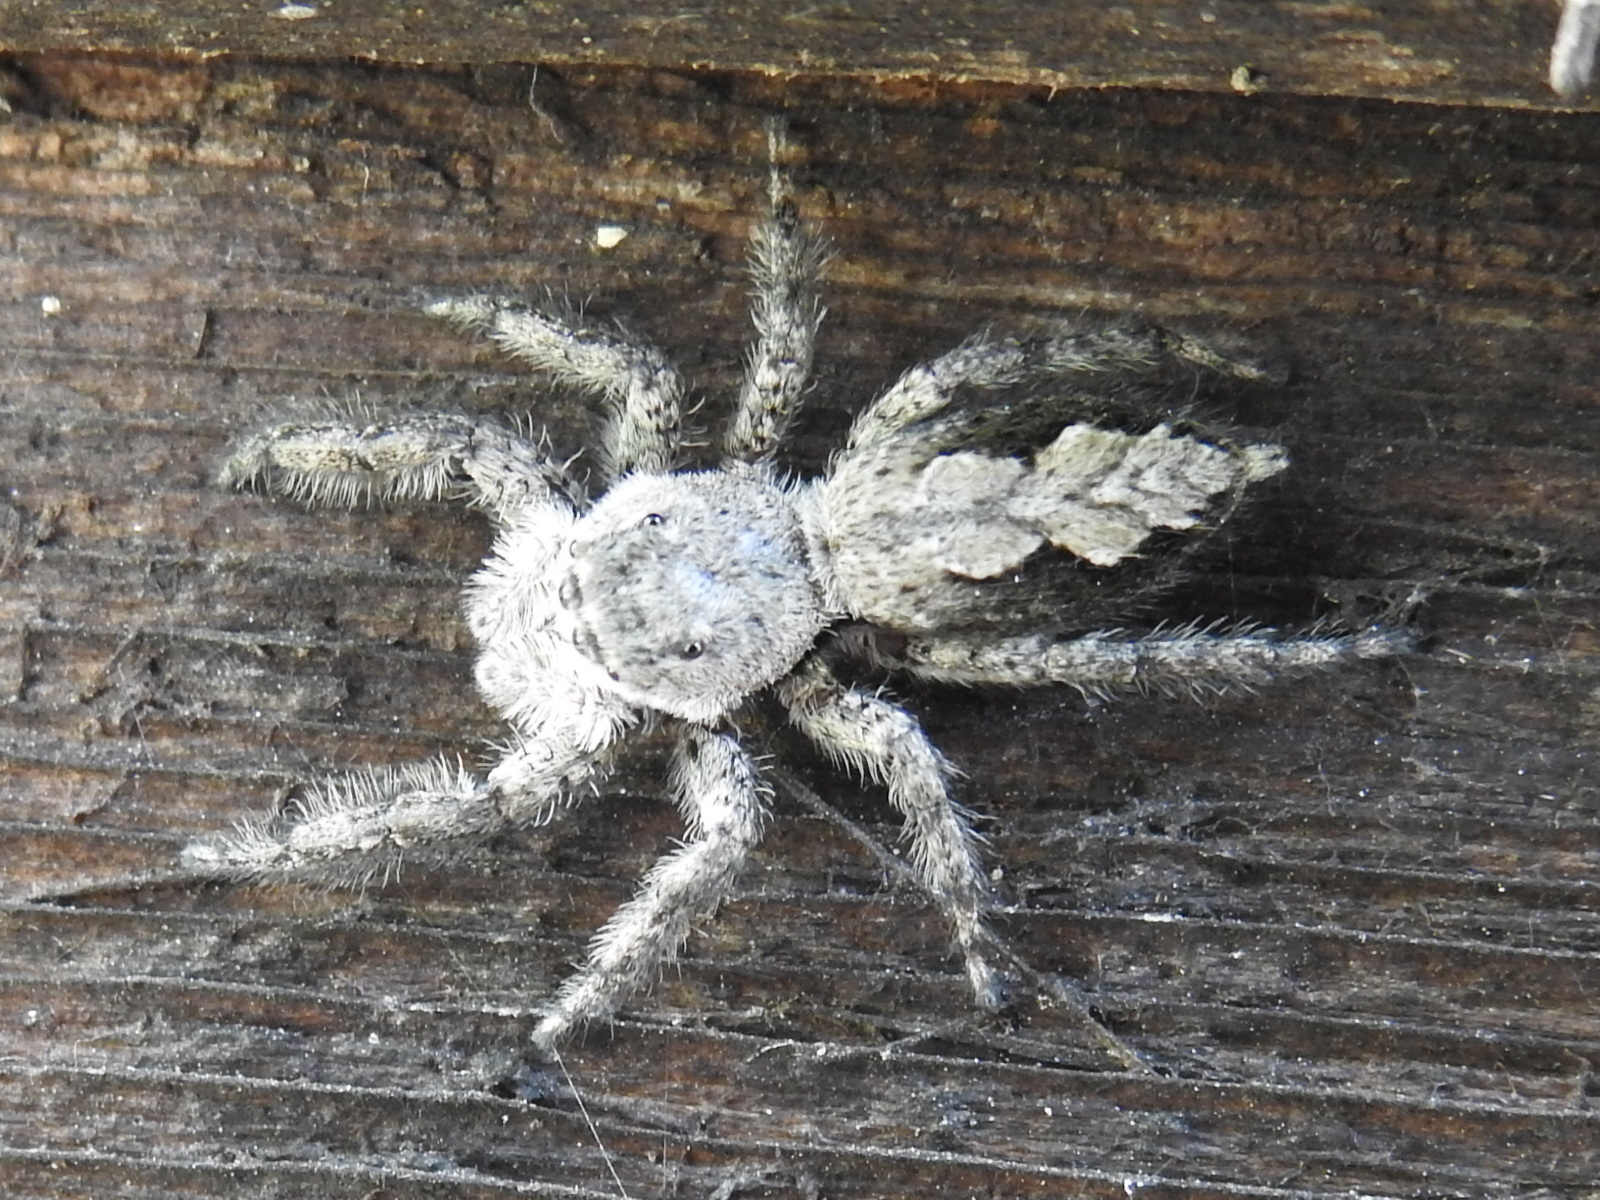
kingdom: Animalia
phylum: Arthropoda
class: Arachnida
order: Araneae
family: Salticidae
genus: Platycryptus
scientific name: Platycryptus undatus
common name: Tan jumping spider
